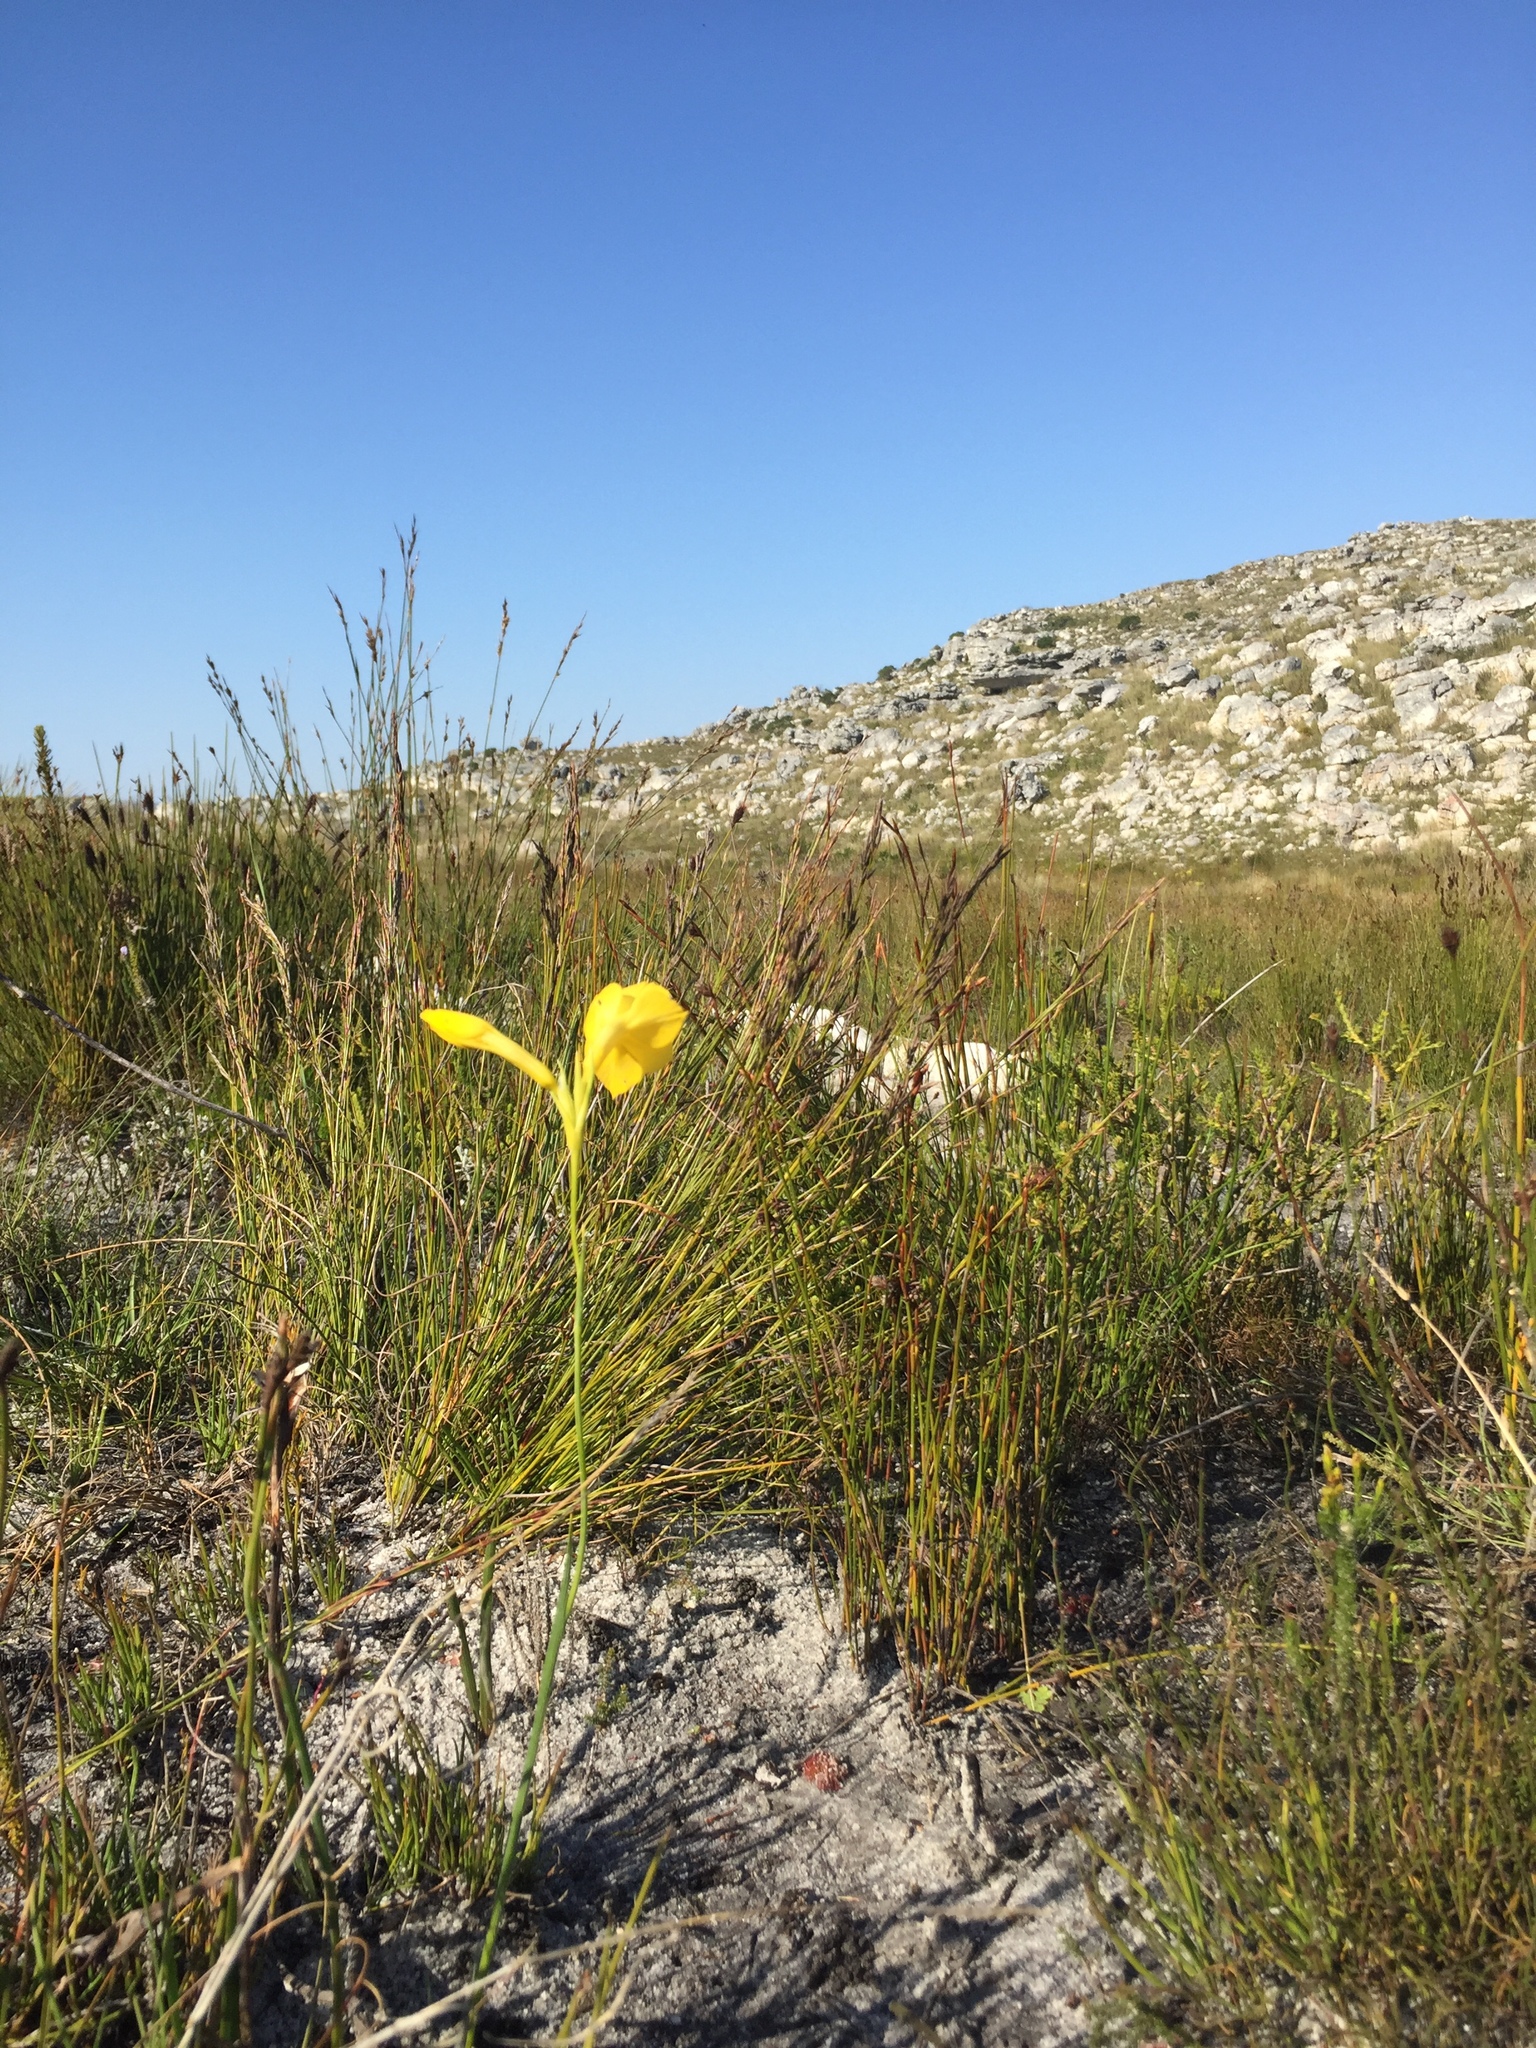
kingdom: Plantae
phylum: Tracheophyta
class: Liliopsida
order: Asparagales
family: Iridaceae
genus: Gladiolus
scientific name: Gladiolus merianellus
